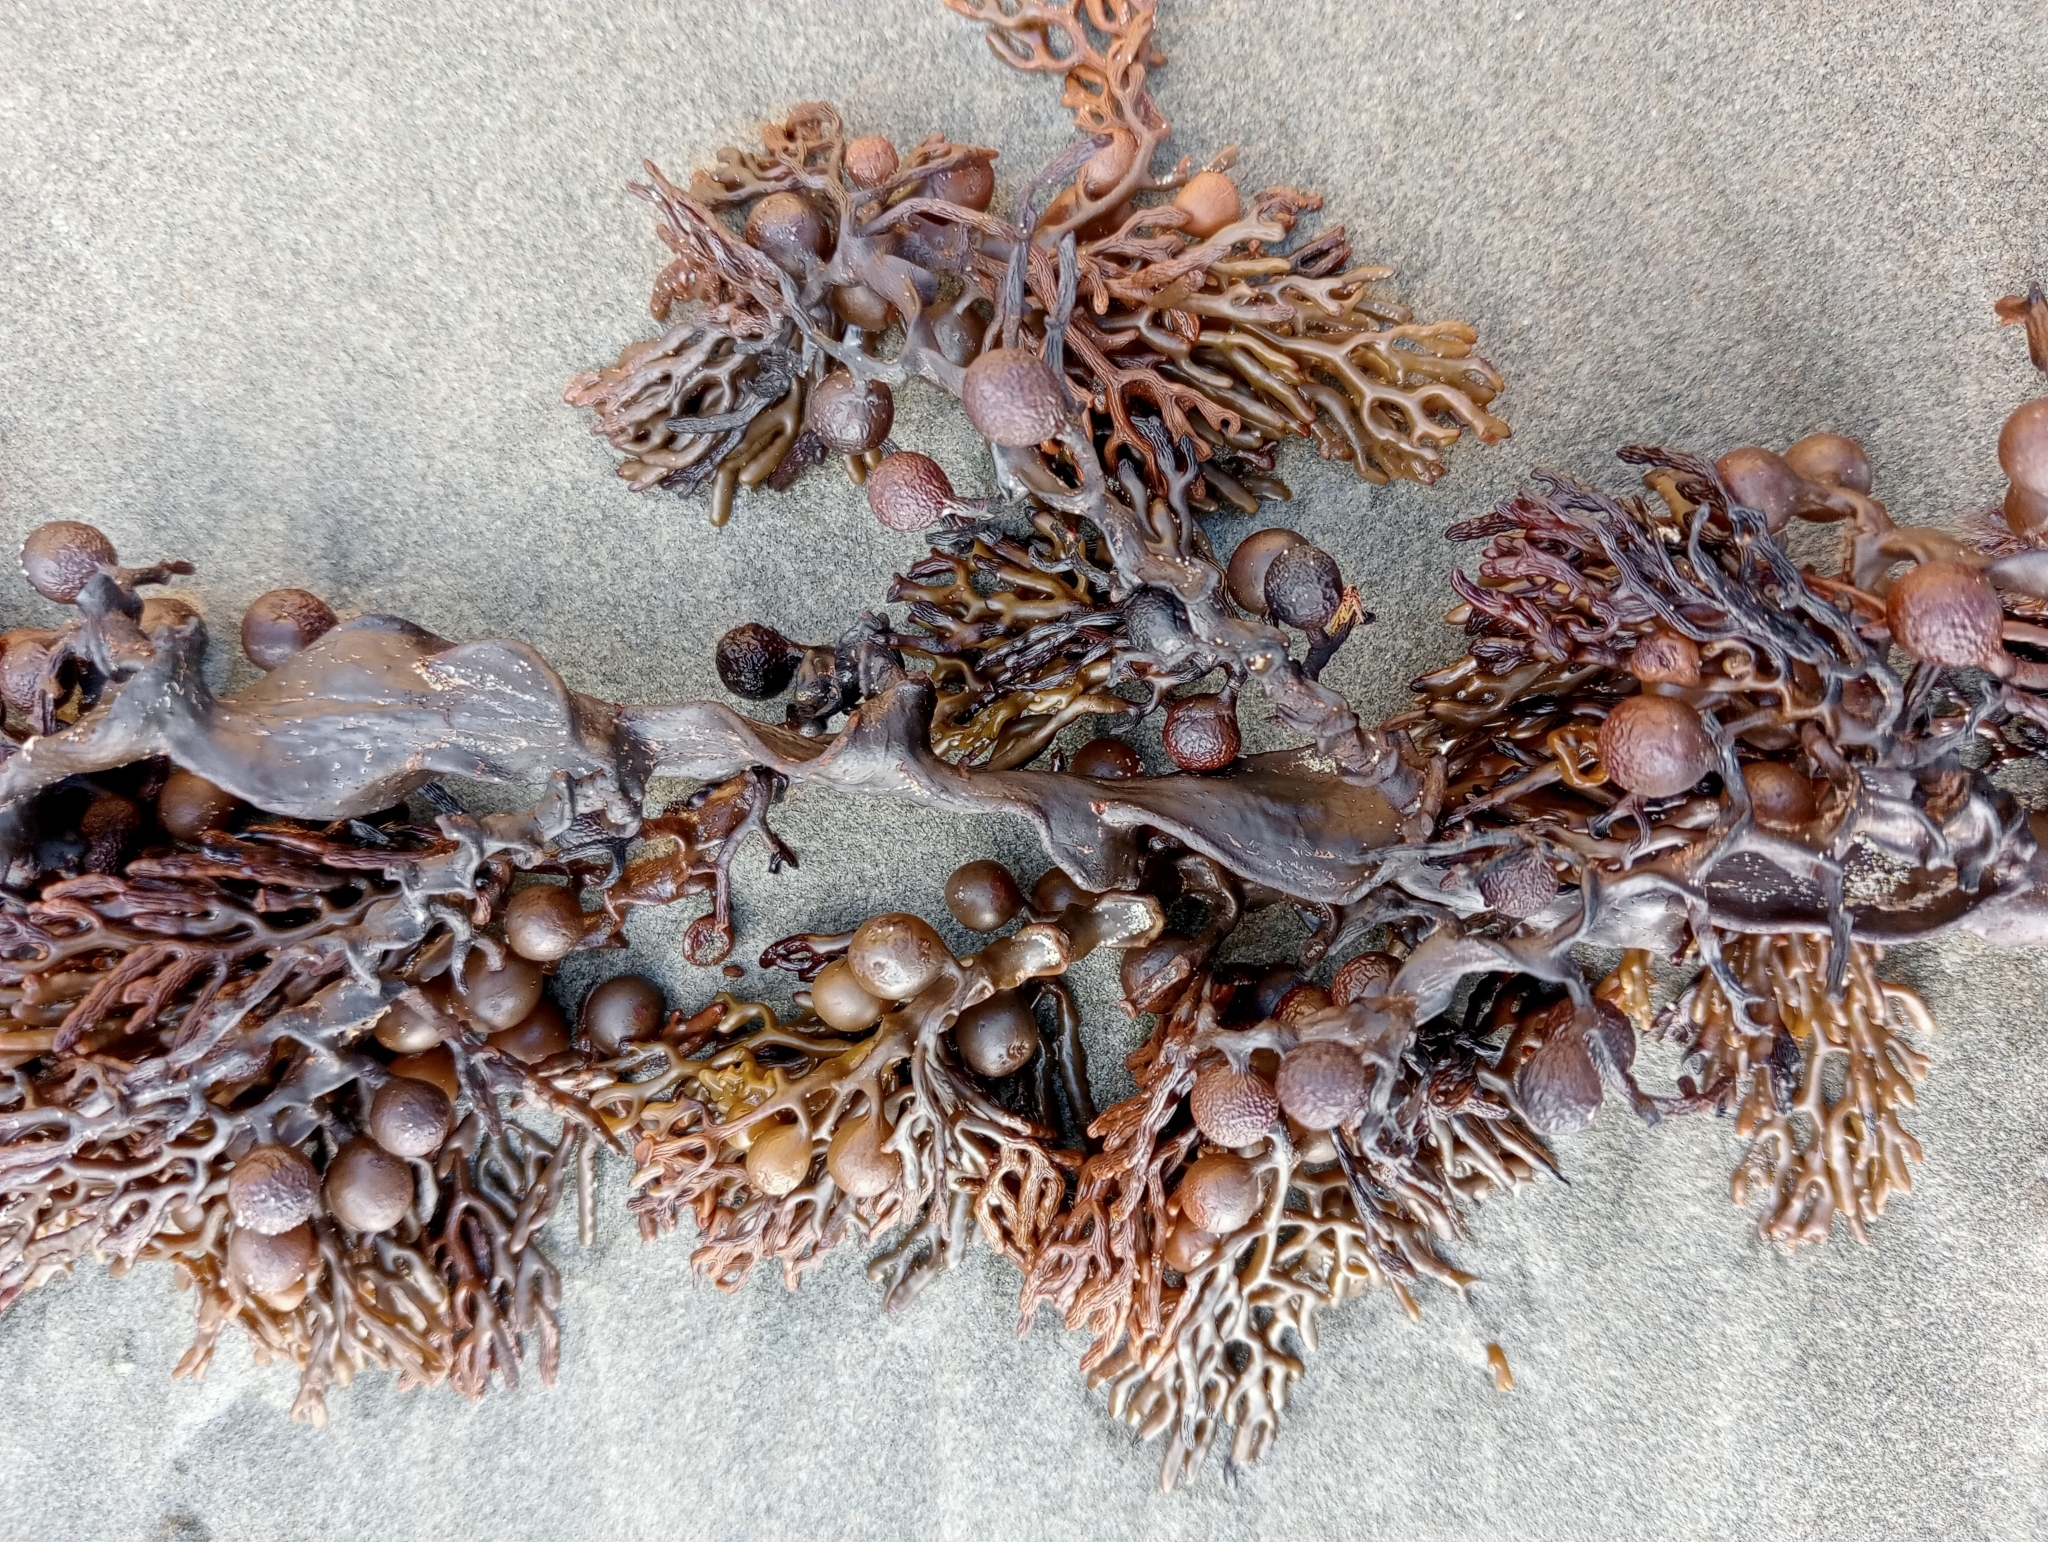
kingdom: Chromista
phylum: Ochrophyta
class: Phaeophyceae
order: Fucales
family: Sargassaceae
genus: Cystophora
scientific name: Cystophora scalaris
